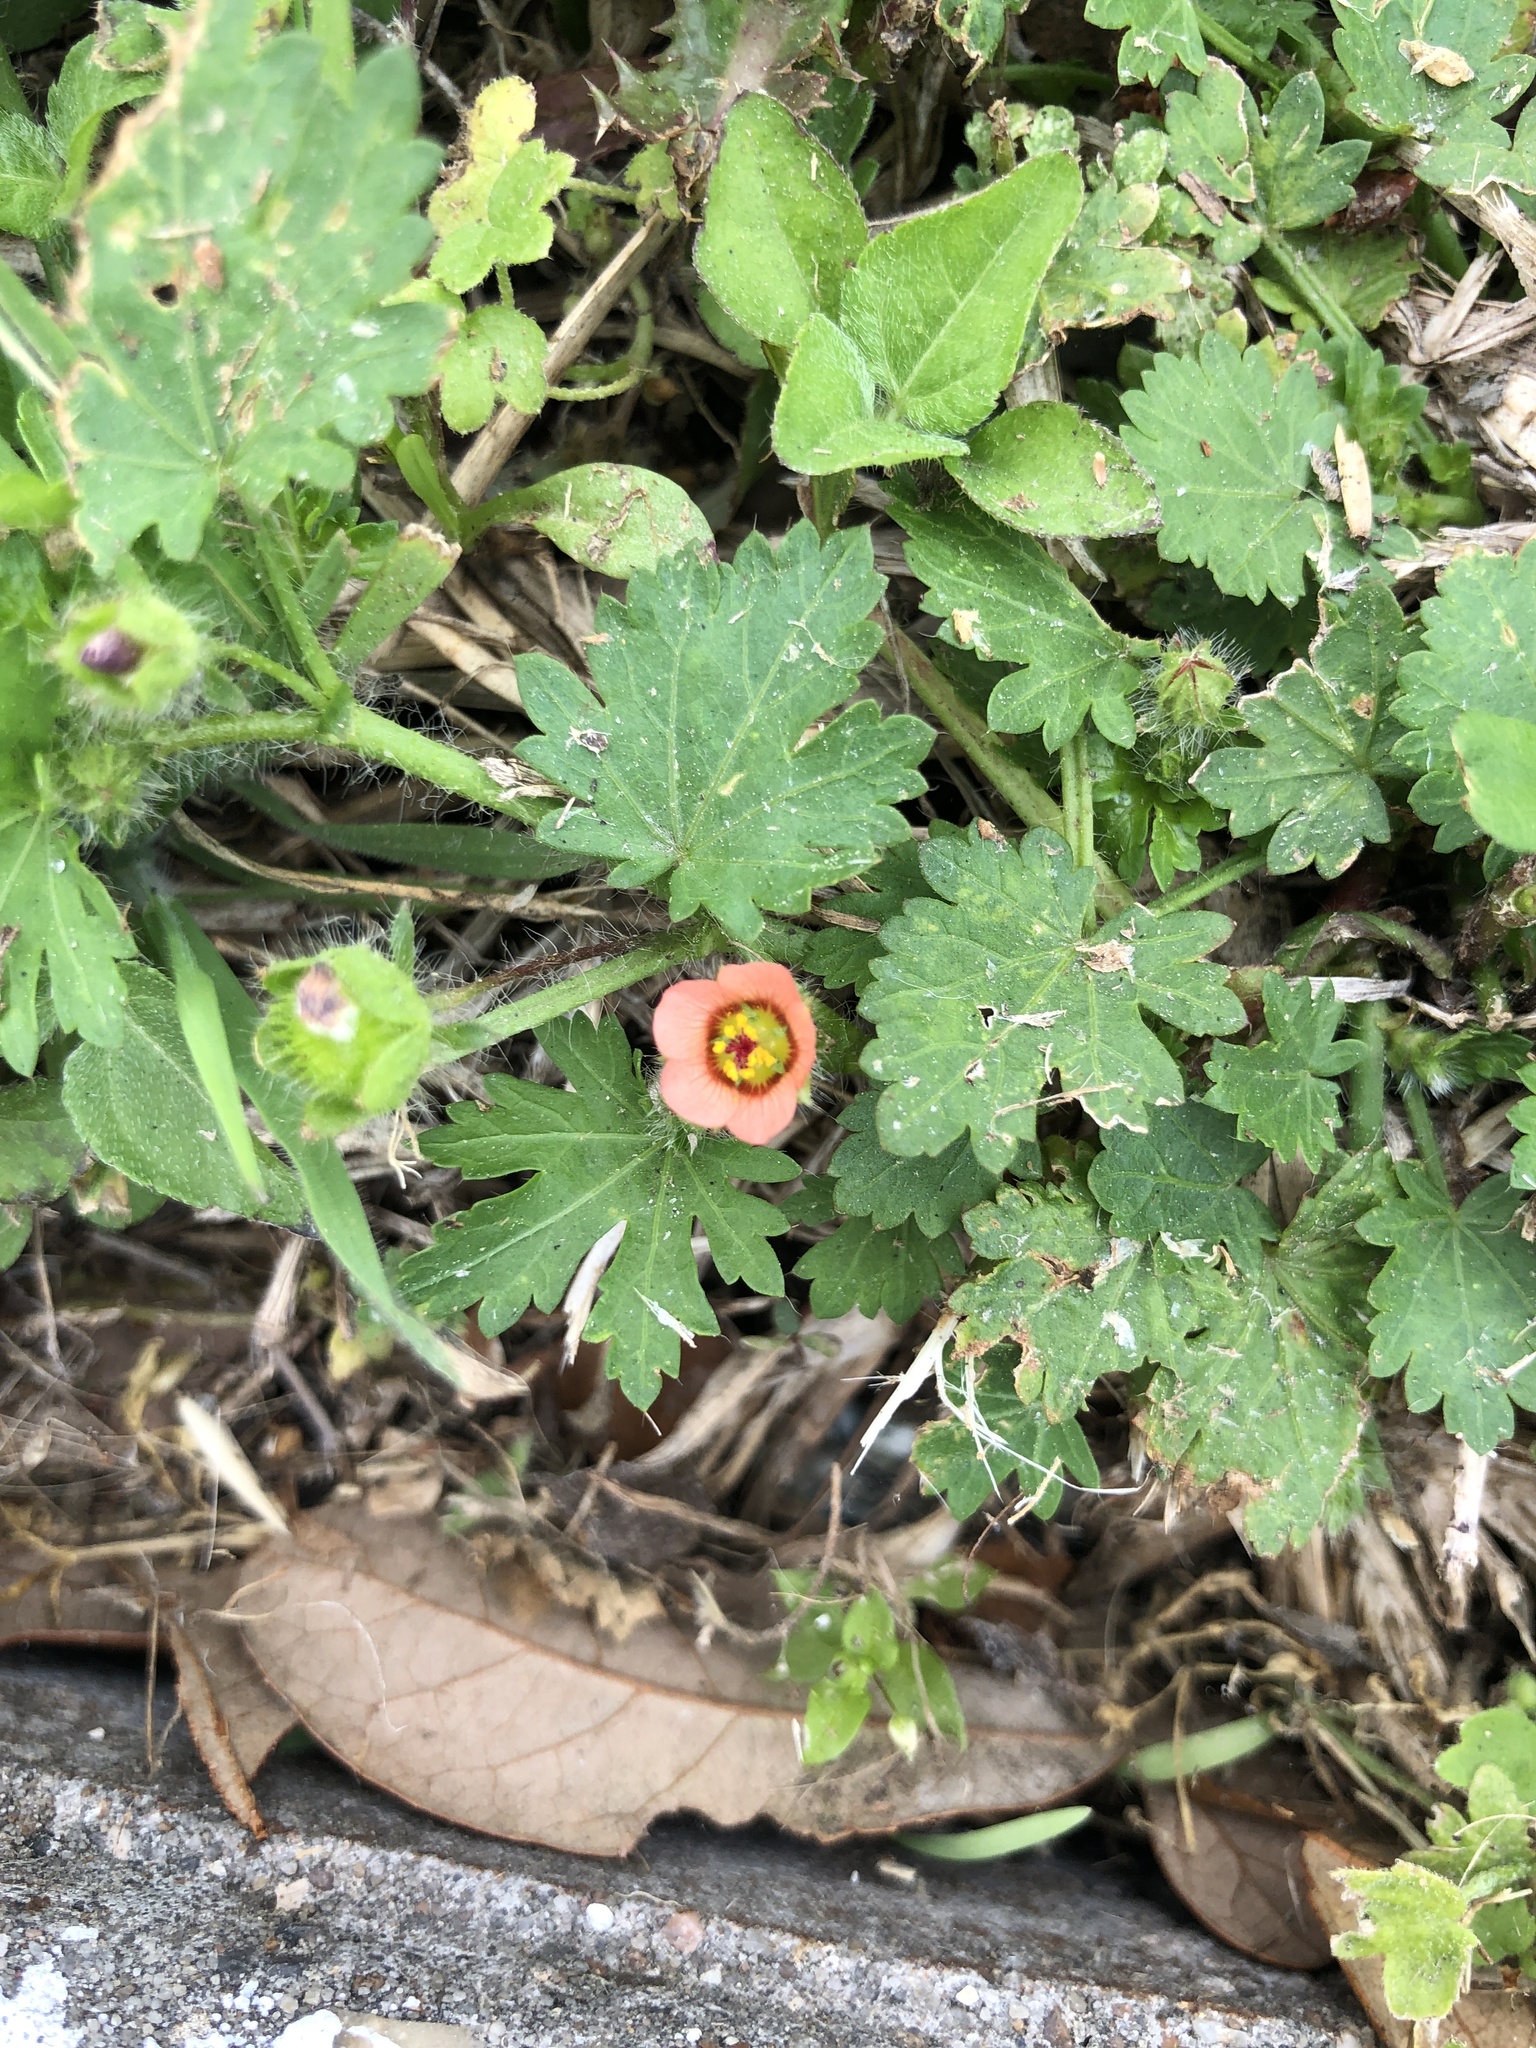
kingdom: Plantae
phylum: Tracheophyta
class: Magnoliopsida
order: Malvales
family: Malvaceae
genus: Modiola
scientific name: Modiola caroliniana
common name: Carolina bristlemallow
